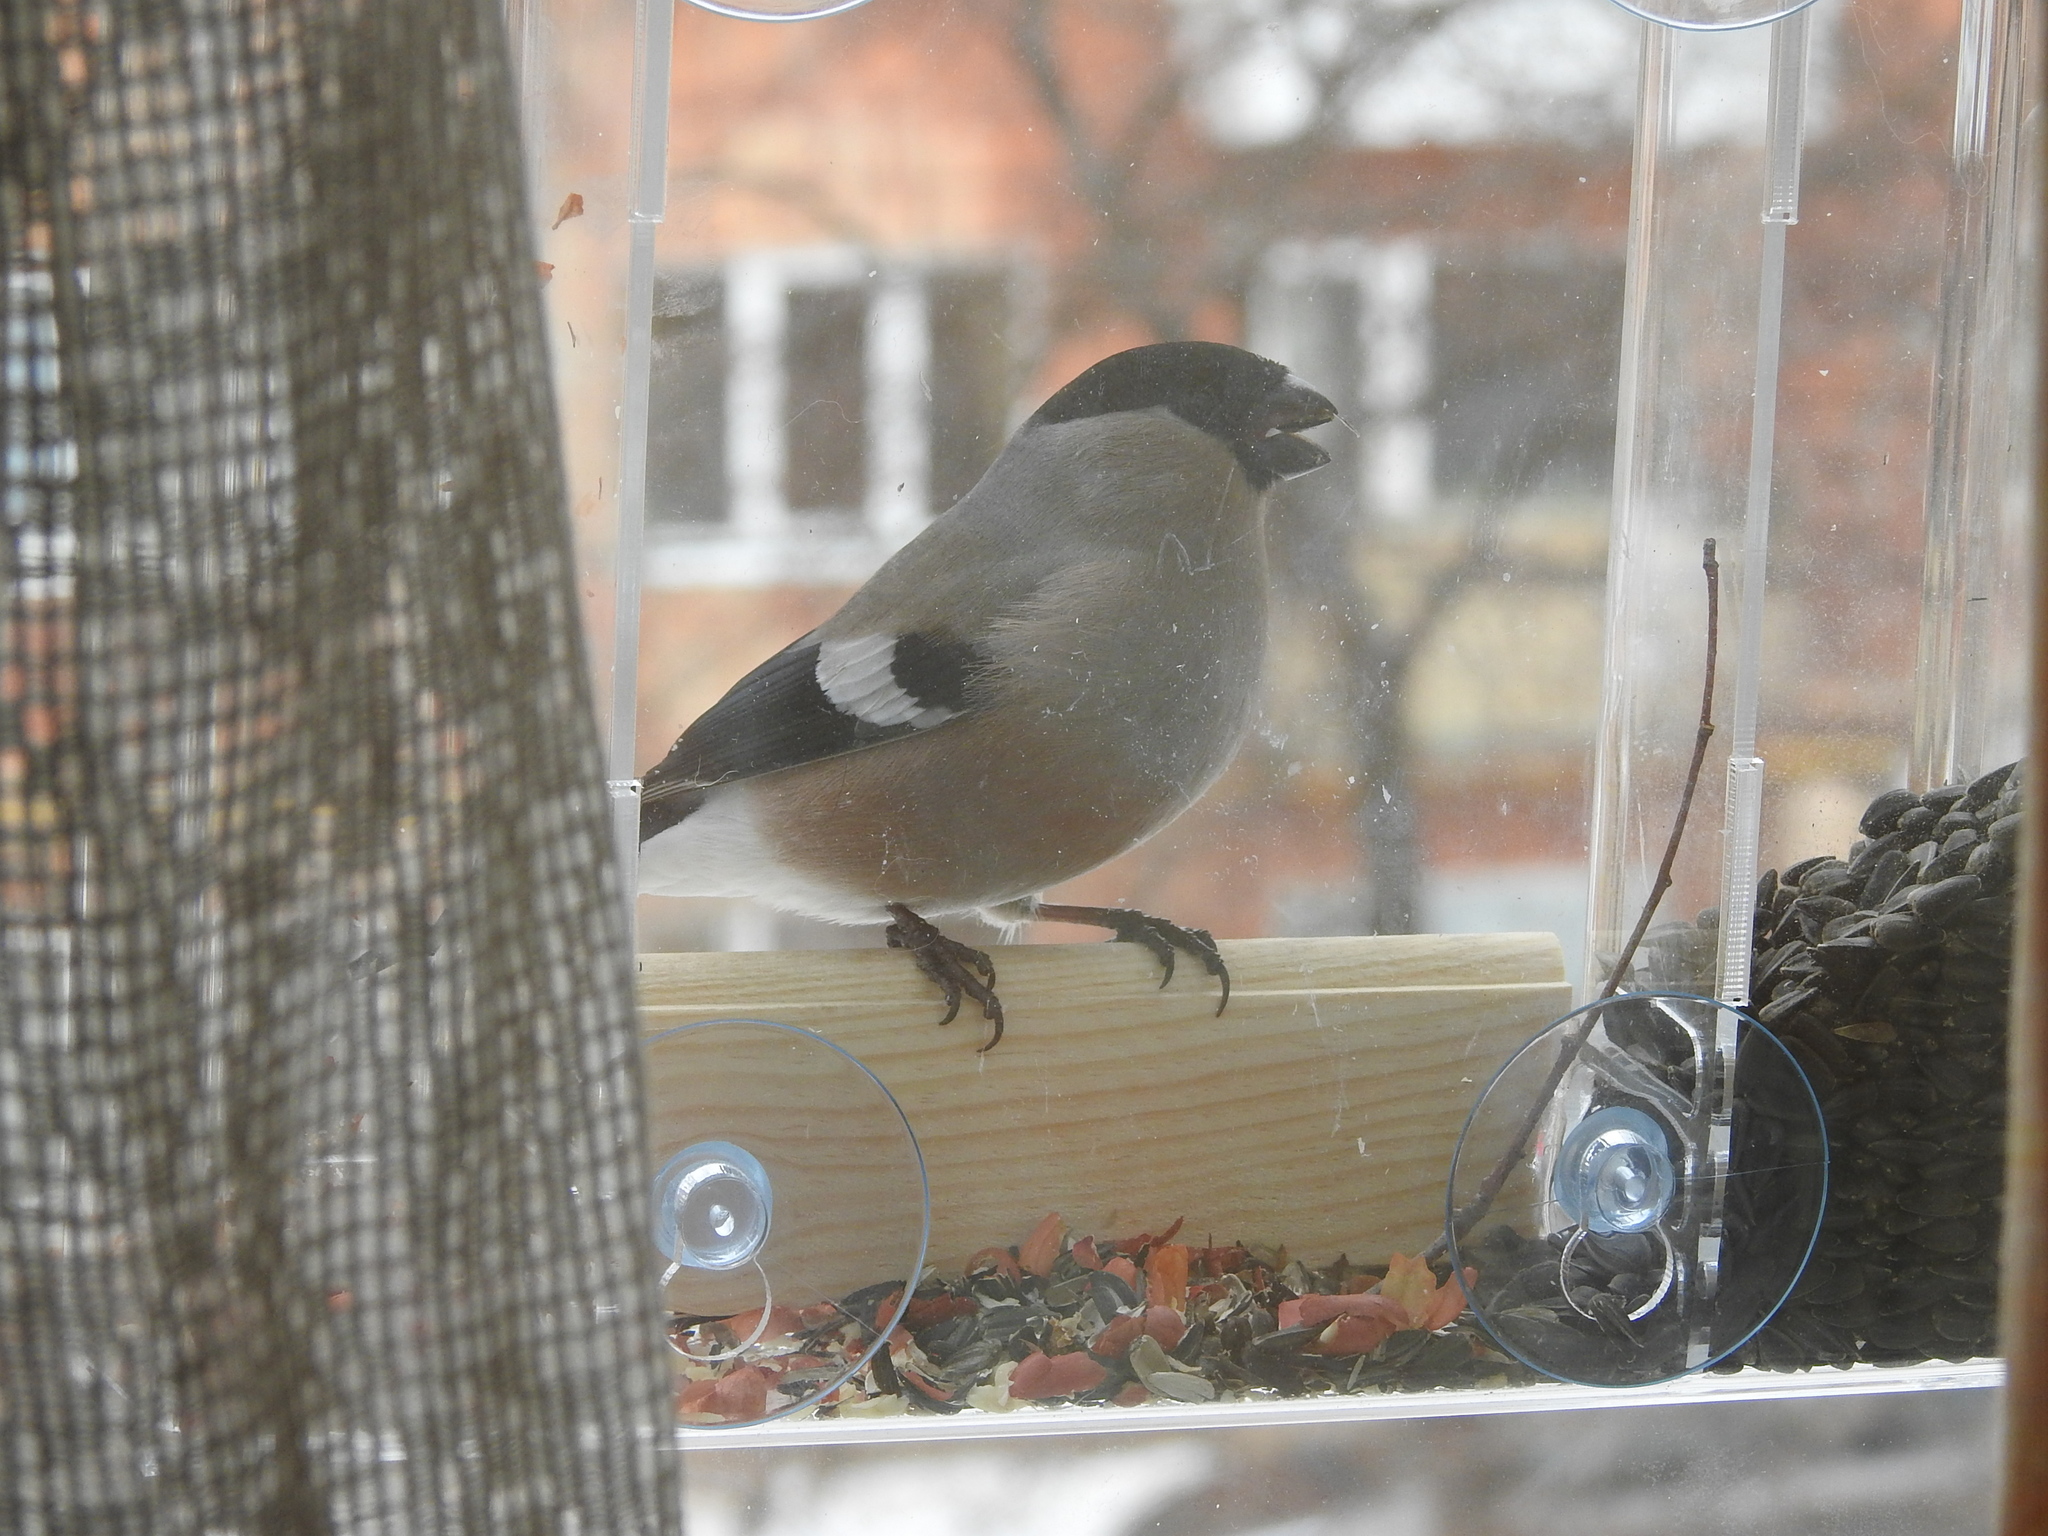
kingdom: Animalia
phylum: Chordata
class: Aves
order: Passeriformes
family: Fringillidae
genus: Pyrrhula
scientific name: Pyrrhula pyrrhula
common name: Eurasian bullfinch
